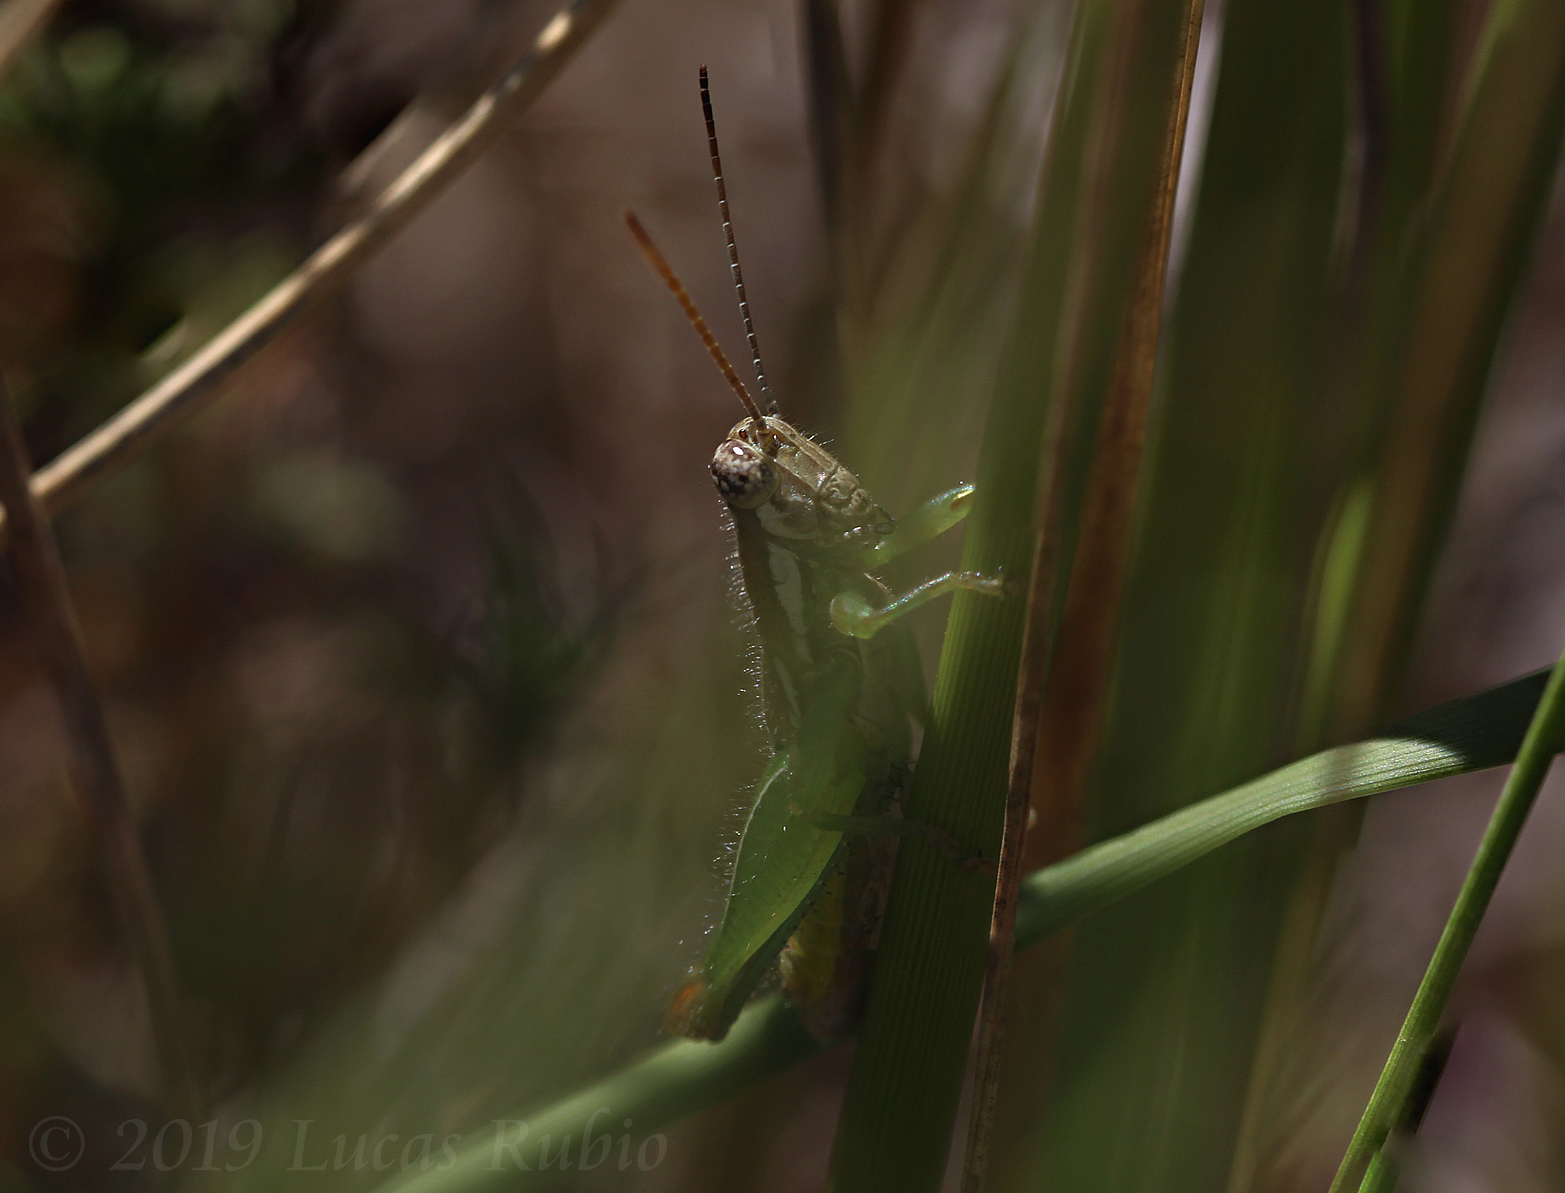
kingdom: Animalia
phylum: Arthropoda
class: Insecta
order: Orthoptera
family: Acrididae
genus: Neopedies
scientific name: Neopedies brunneri
